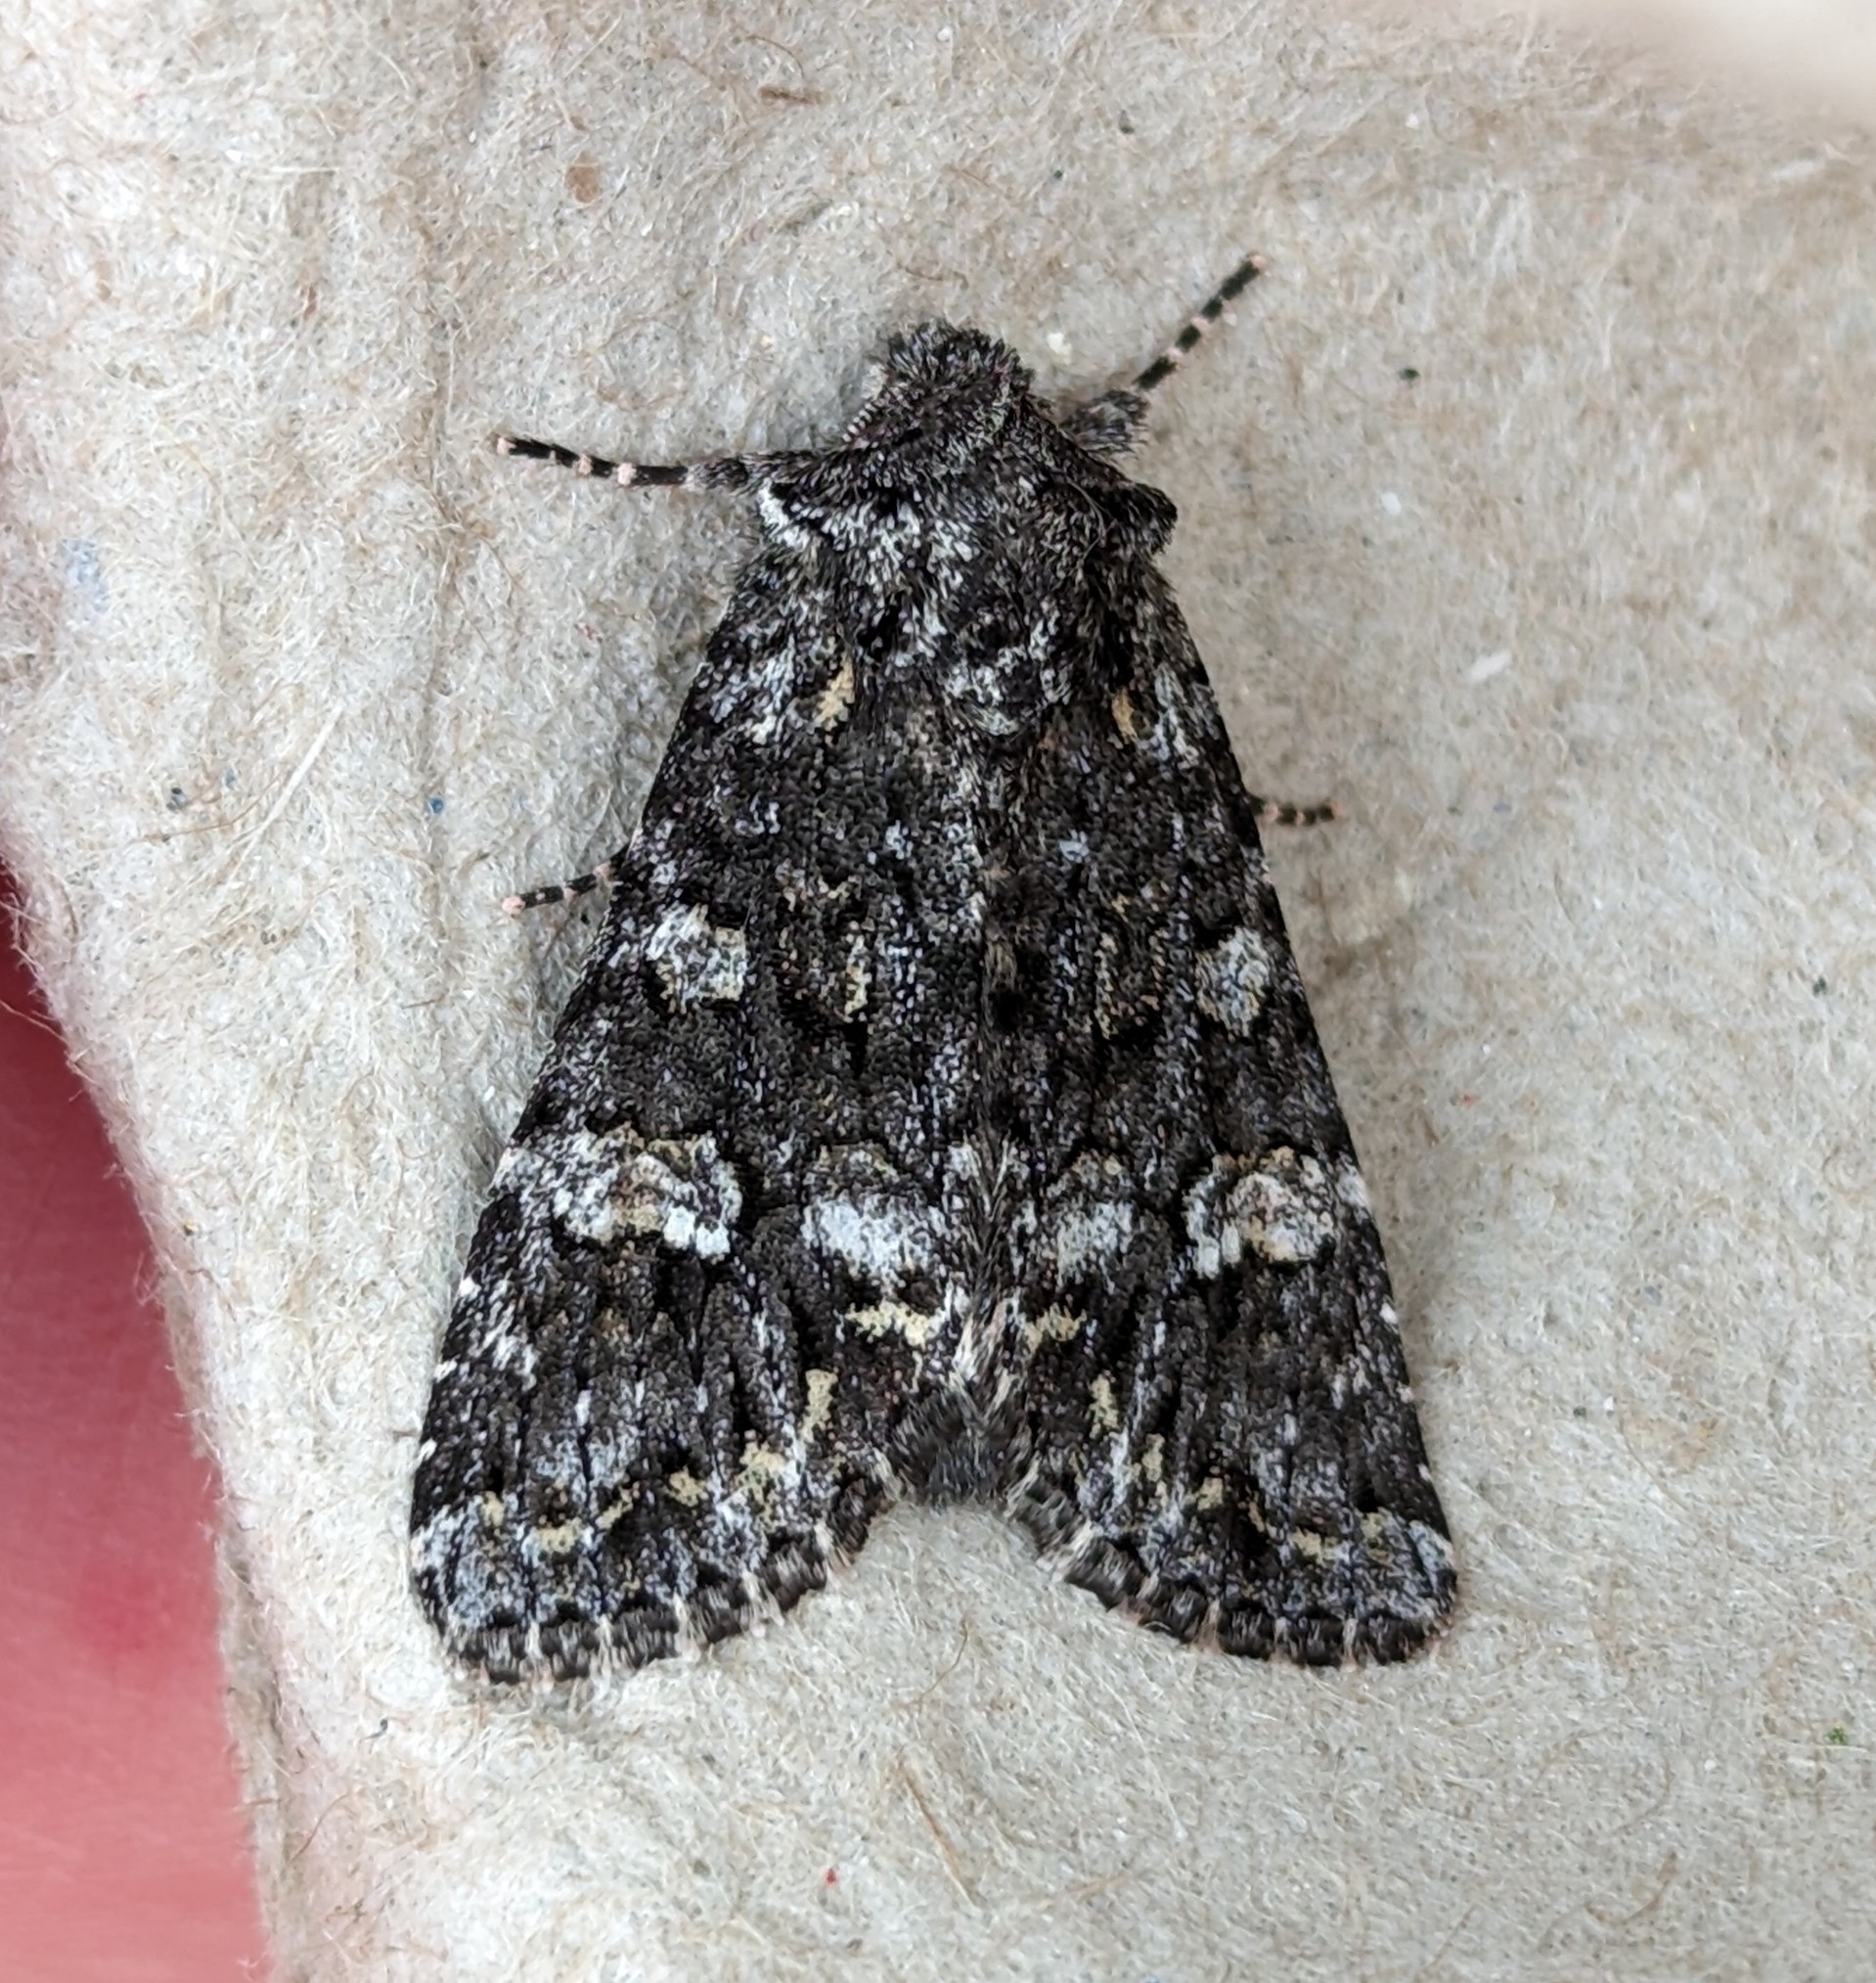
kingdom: Animalia
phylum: Arthropoda
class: Insecta
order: Lepidoptera
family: Noctuidae
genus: Papestra
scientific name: Papestra cristifera
